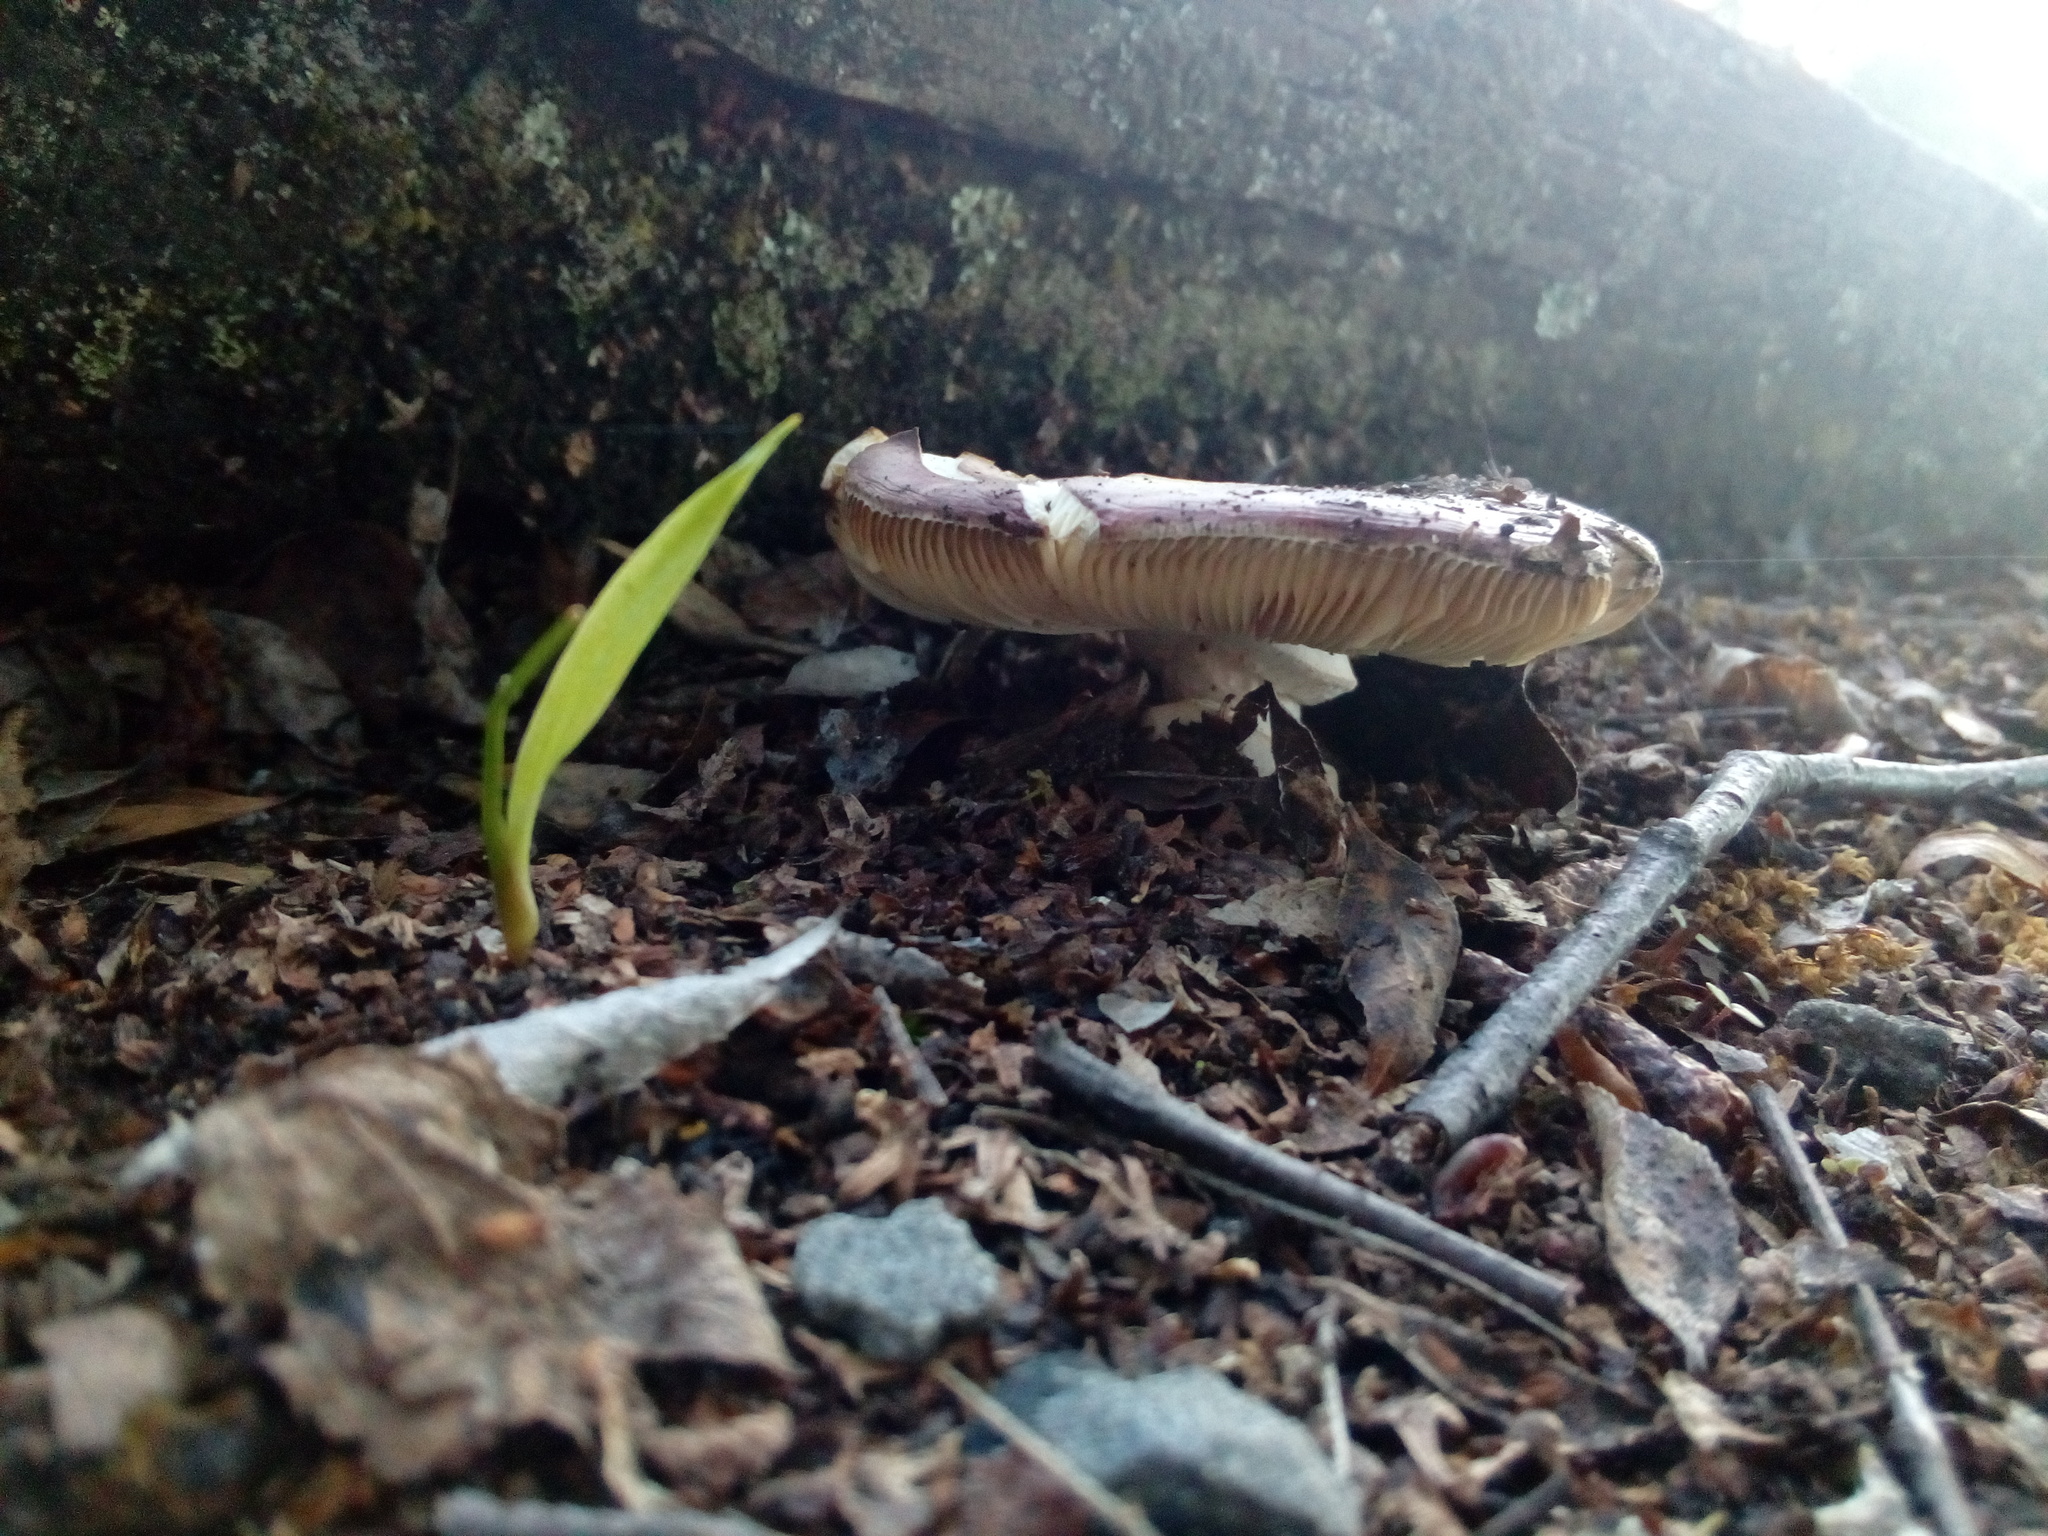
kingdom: Fungi
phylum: Basidiomycota
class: Agaricomycetes
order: Russulales
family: Russulaceae
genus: Russula
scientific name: Russula nitida
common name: Purple swamp brittlegill
